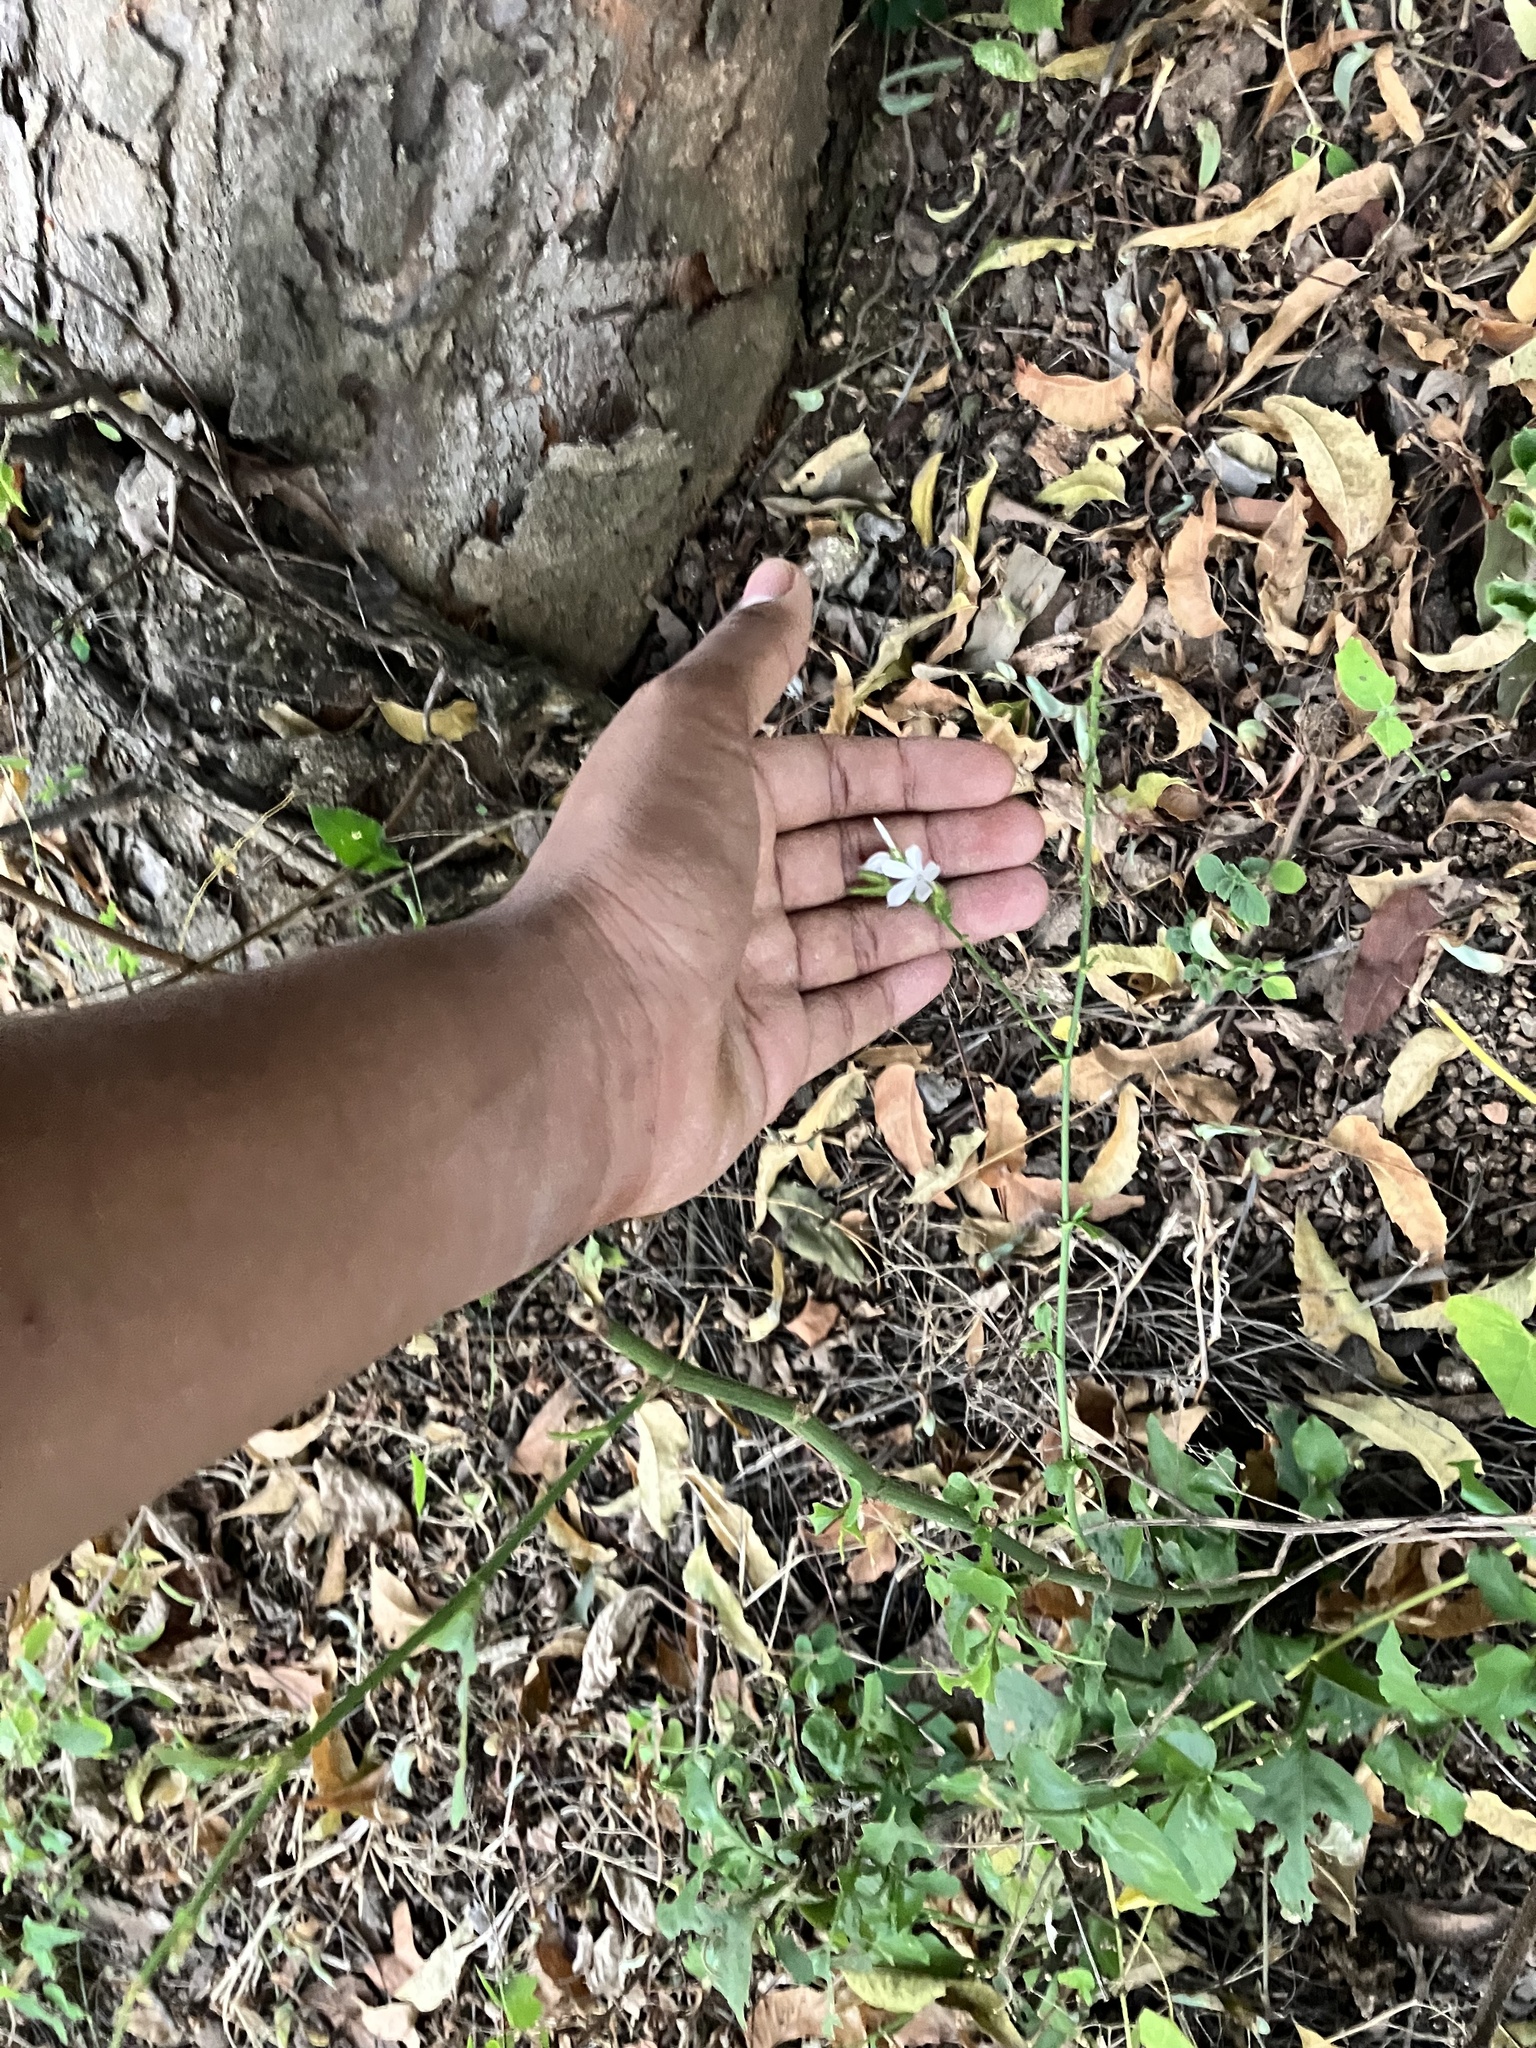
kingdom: Plantae
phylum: Tracheophyta
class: Magnoliopsida
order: Caryophyllales
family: Plumbaginaceae
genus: Plumbago
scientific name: Plumbago zeylanica
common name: Doctorbush
